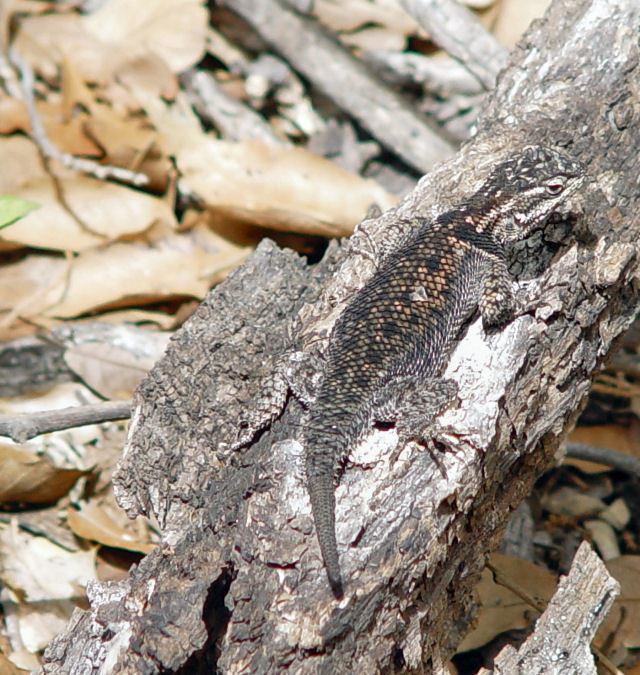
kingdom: Animalia
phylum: Chordata
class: Squamata
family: Phrynosomatidae
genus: Sceloporus
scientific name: Sceloporus jarrovii
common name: Yarrow's spiny lizard
